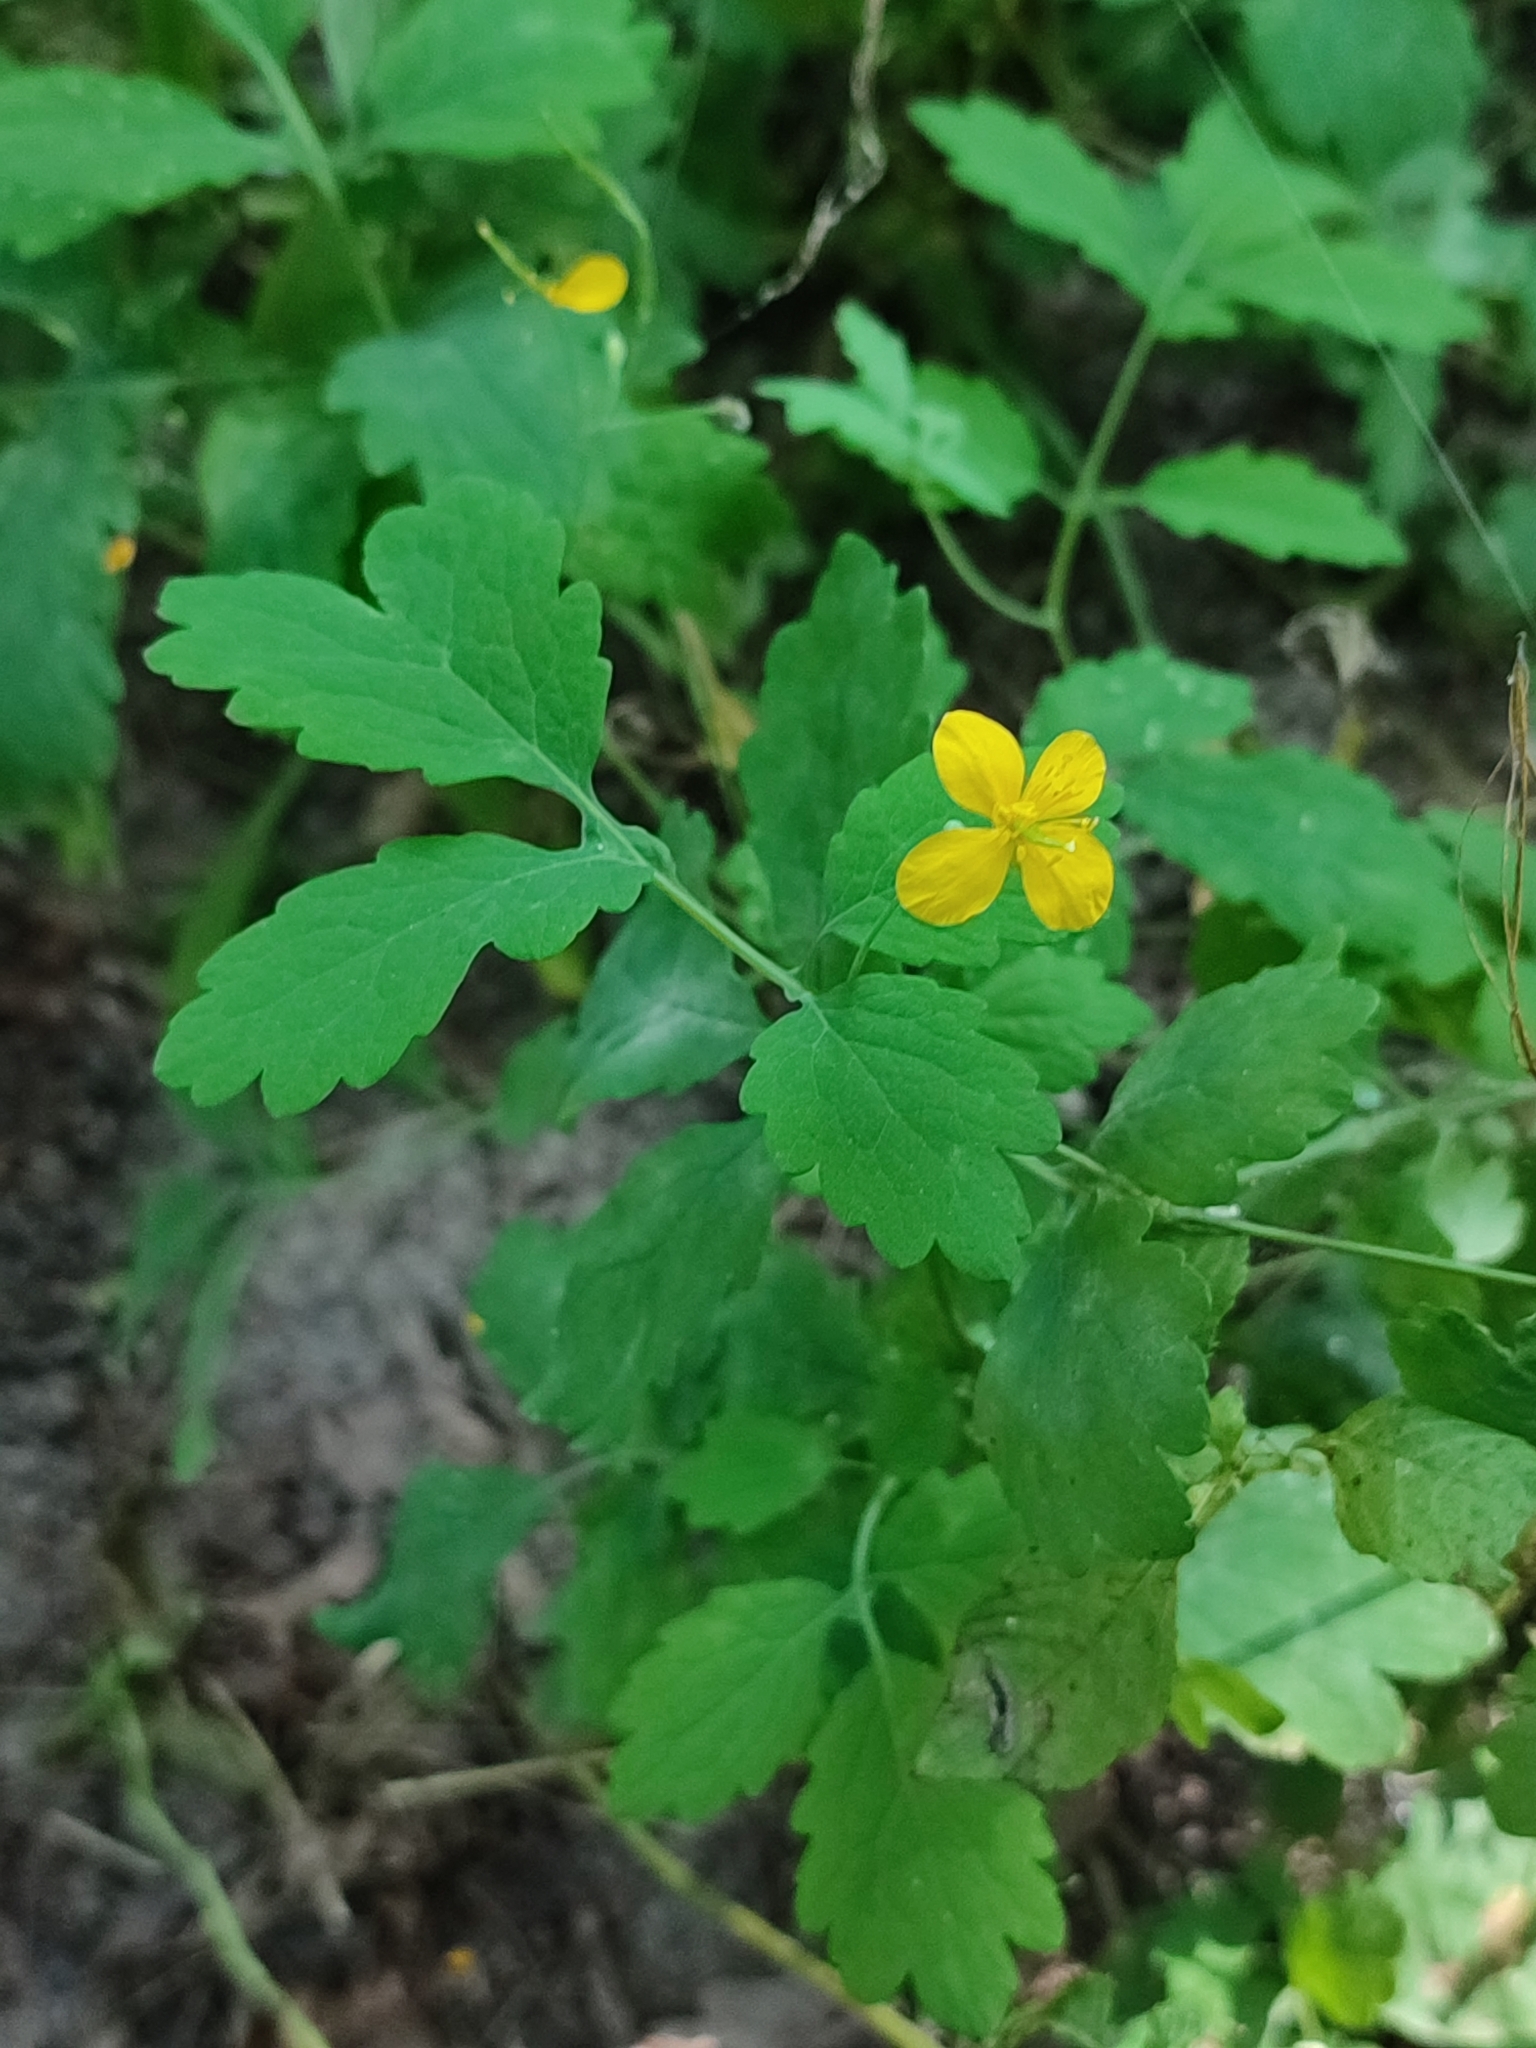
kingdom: Plantae
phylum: Tracheophyta
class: Magnoliopsida
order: Ranunculales
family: Papaveraceae
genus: Chelidonium
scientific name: Chelidonium majus
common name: Greater celandine
